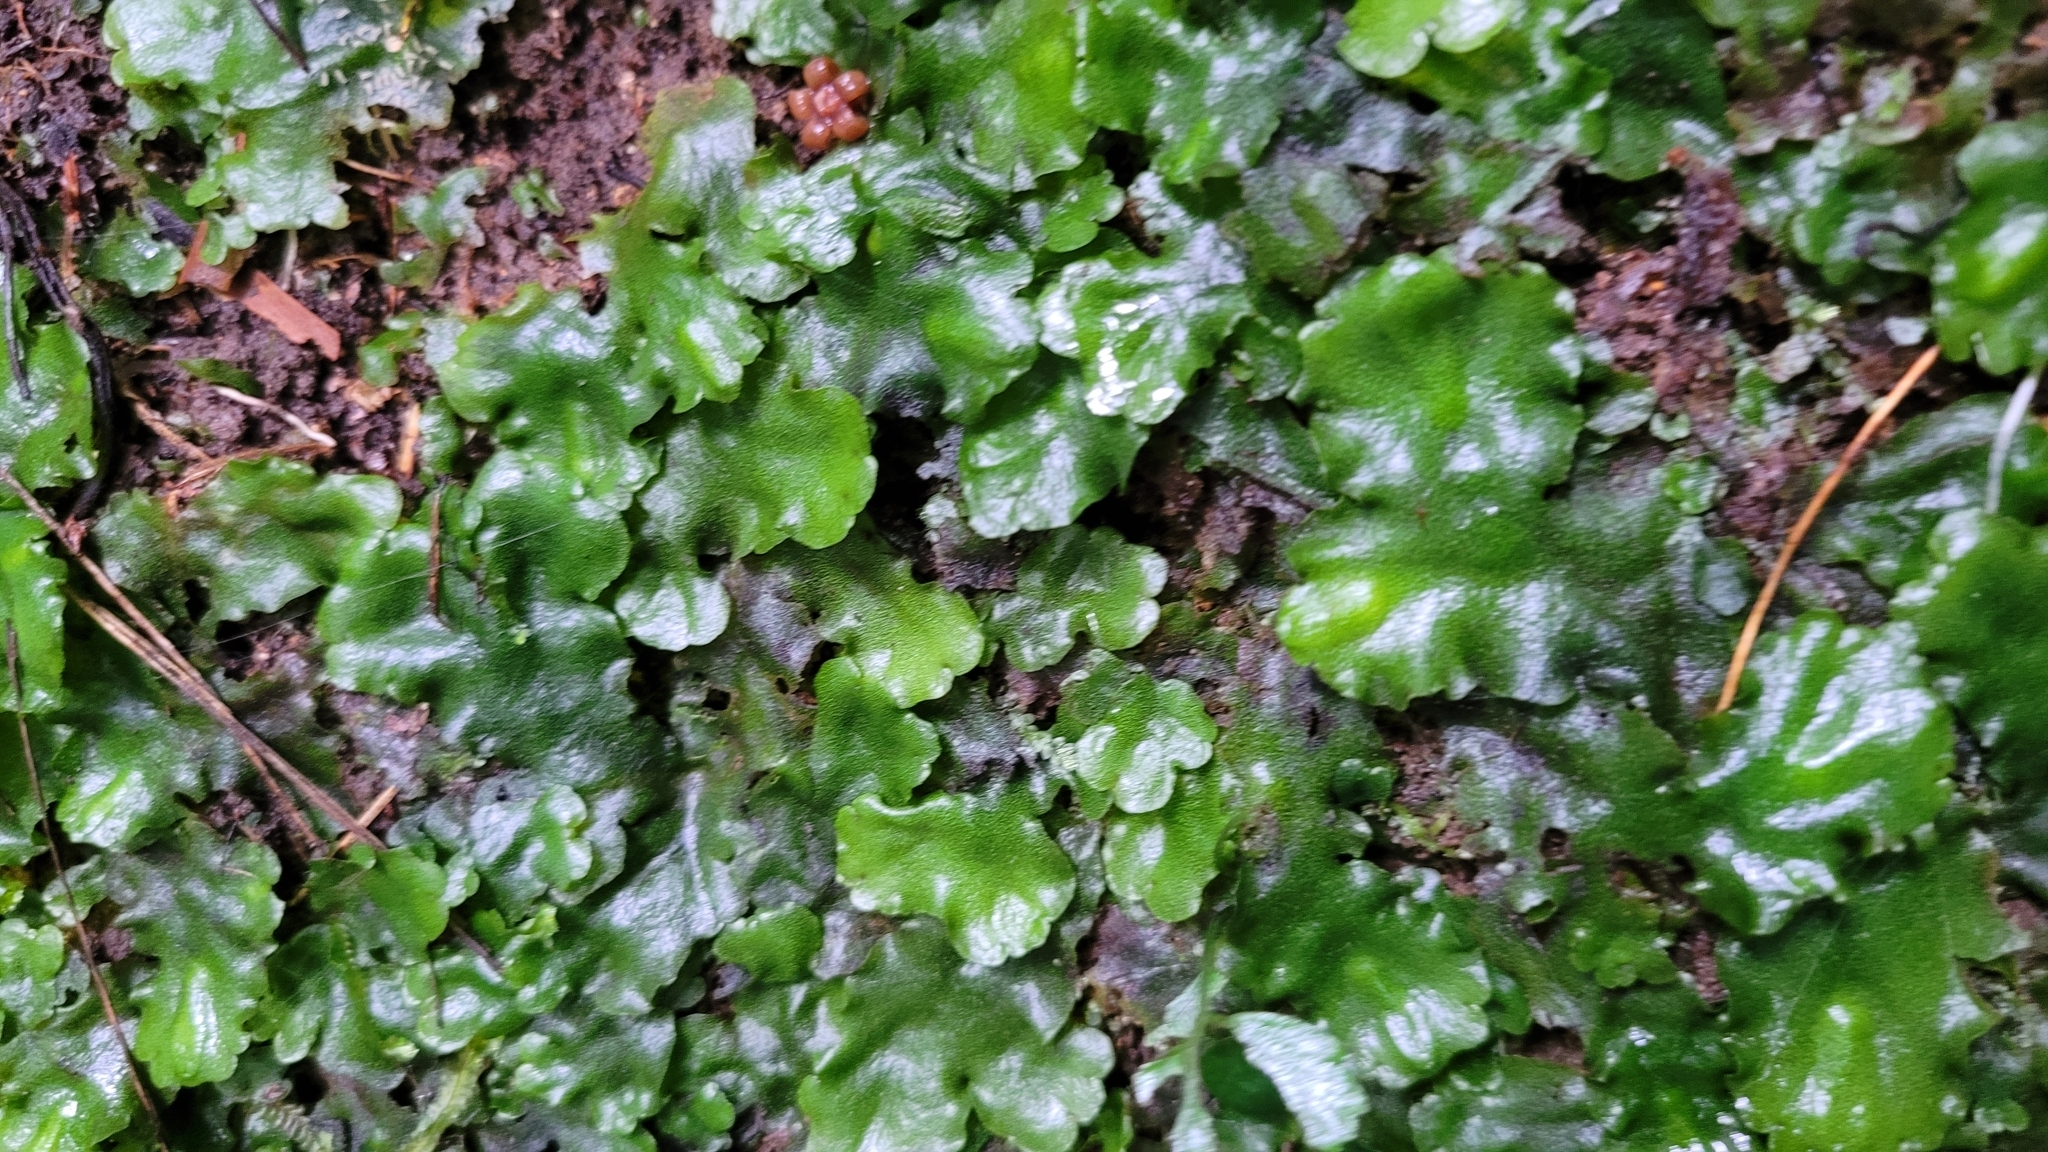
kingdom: Plantae
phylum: Marchantiophyta
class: Marchantiopsida
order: Marchantiales
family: Monocleaceae
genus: Monoclea
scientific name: Monoclea gottschei
